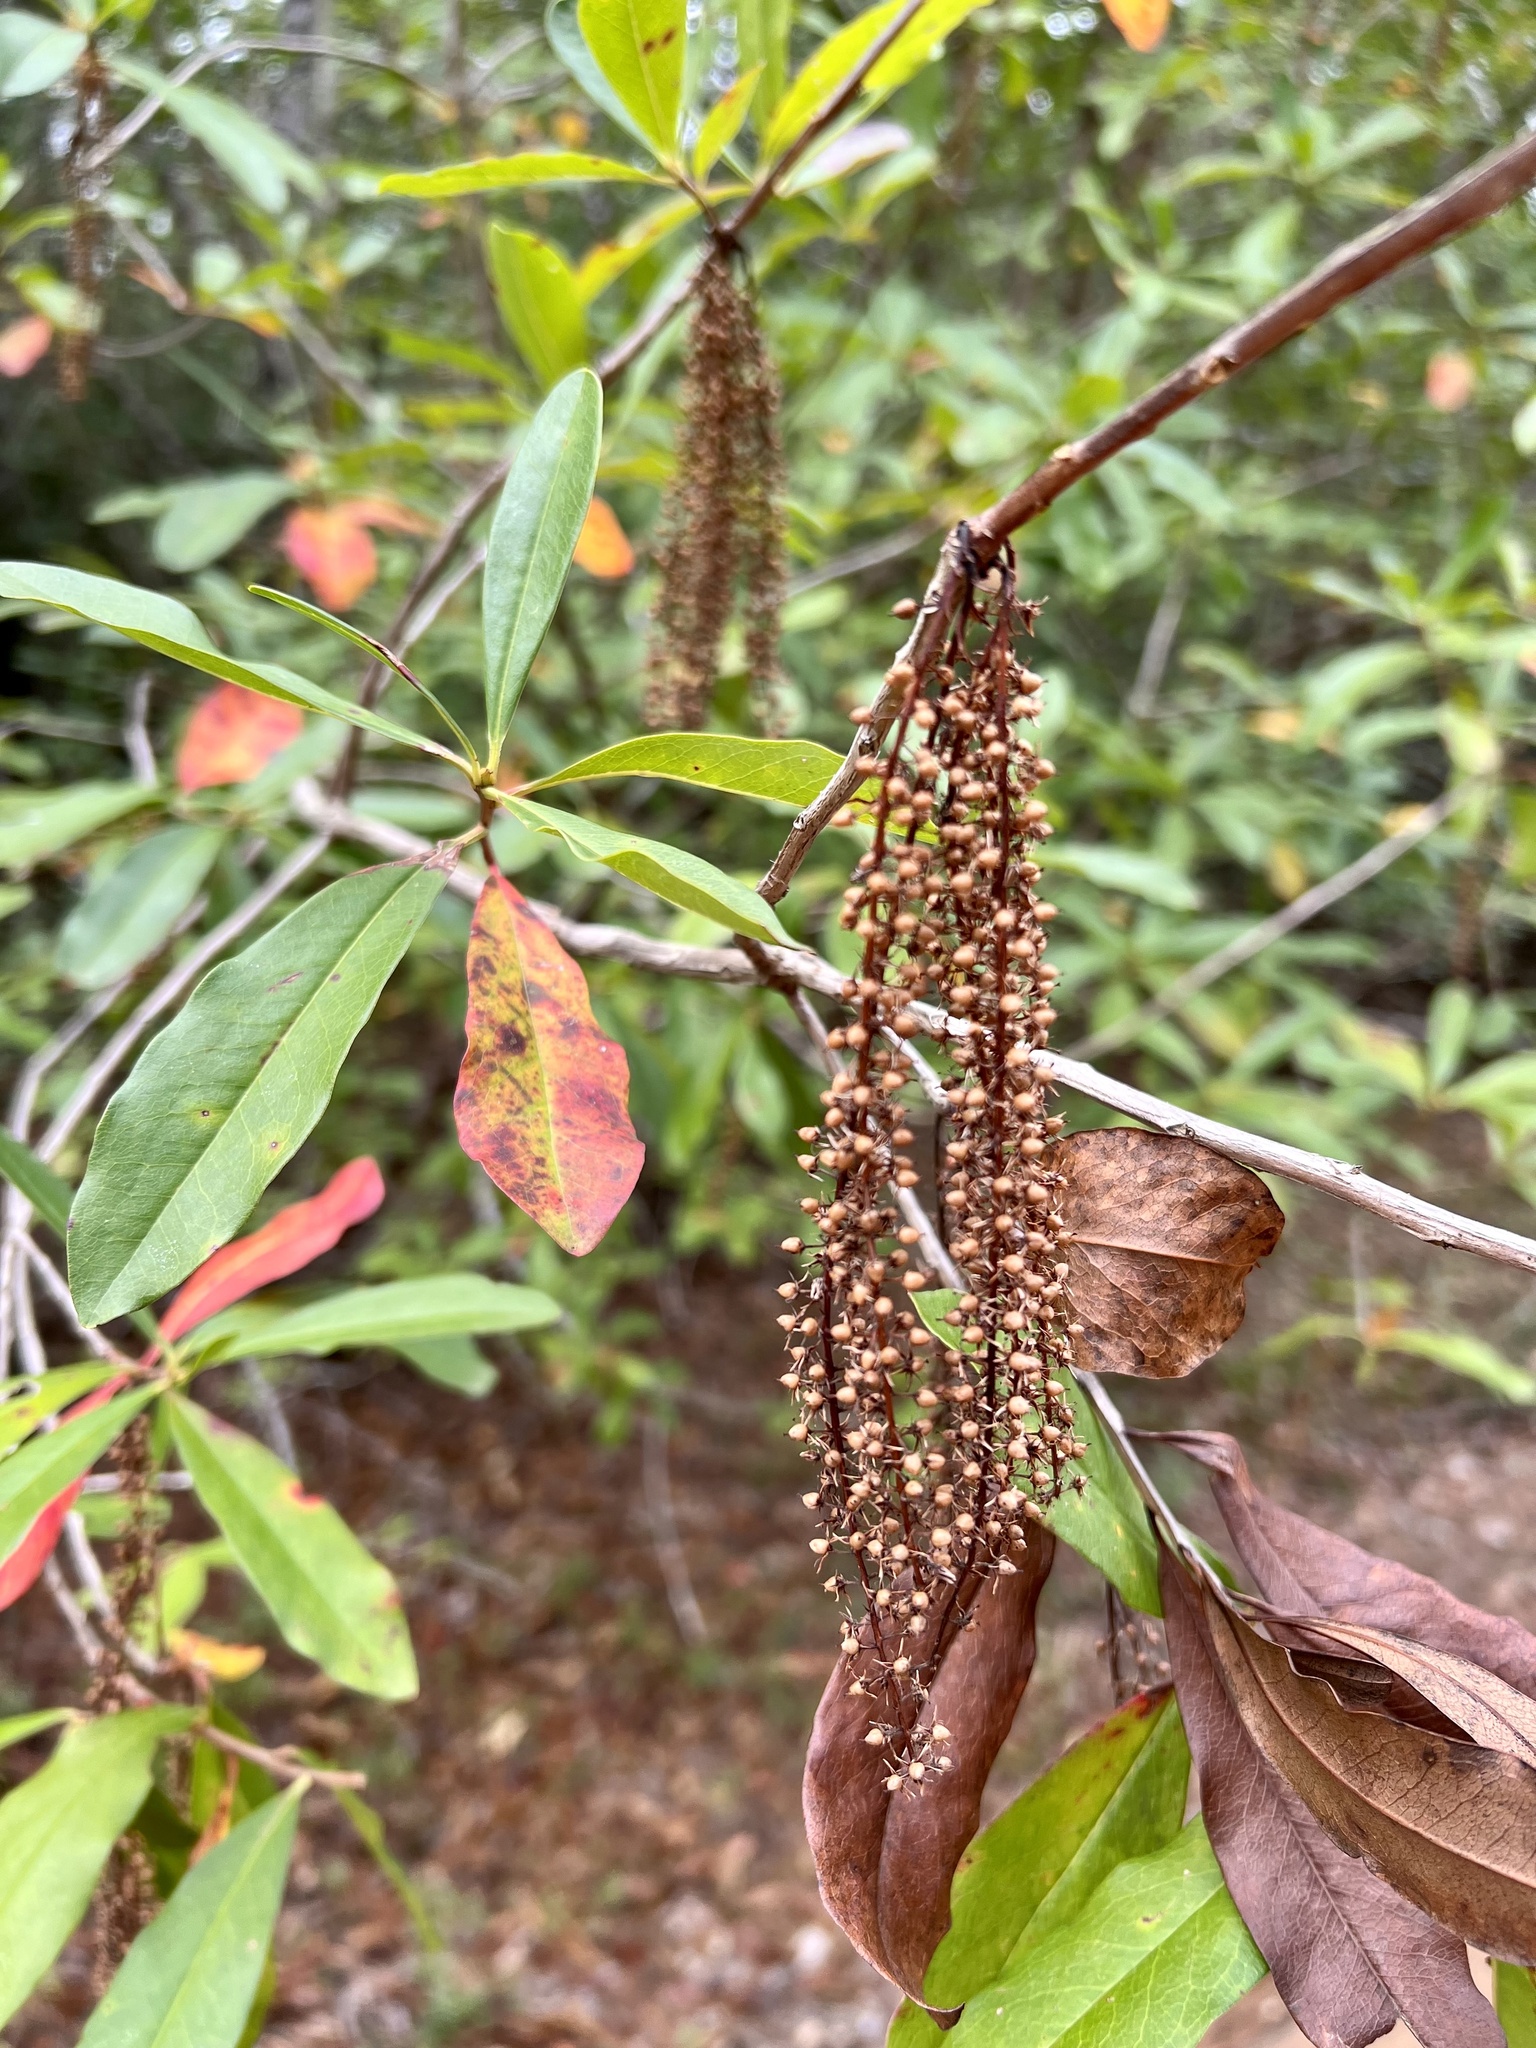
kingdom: Plantae
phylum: Tracheophyta
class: Magnoliopsida
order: Ericales
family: Cyrillaceae
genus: Cyrilla
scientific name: Cyrilla racemiflora
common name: Black titi
